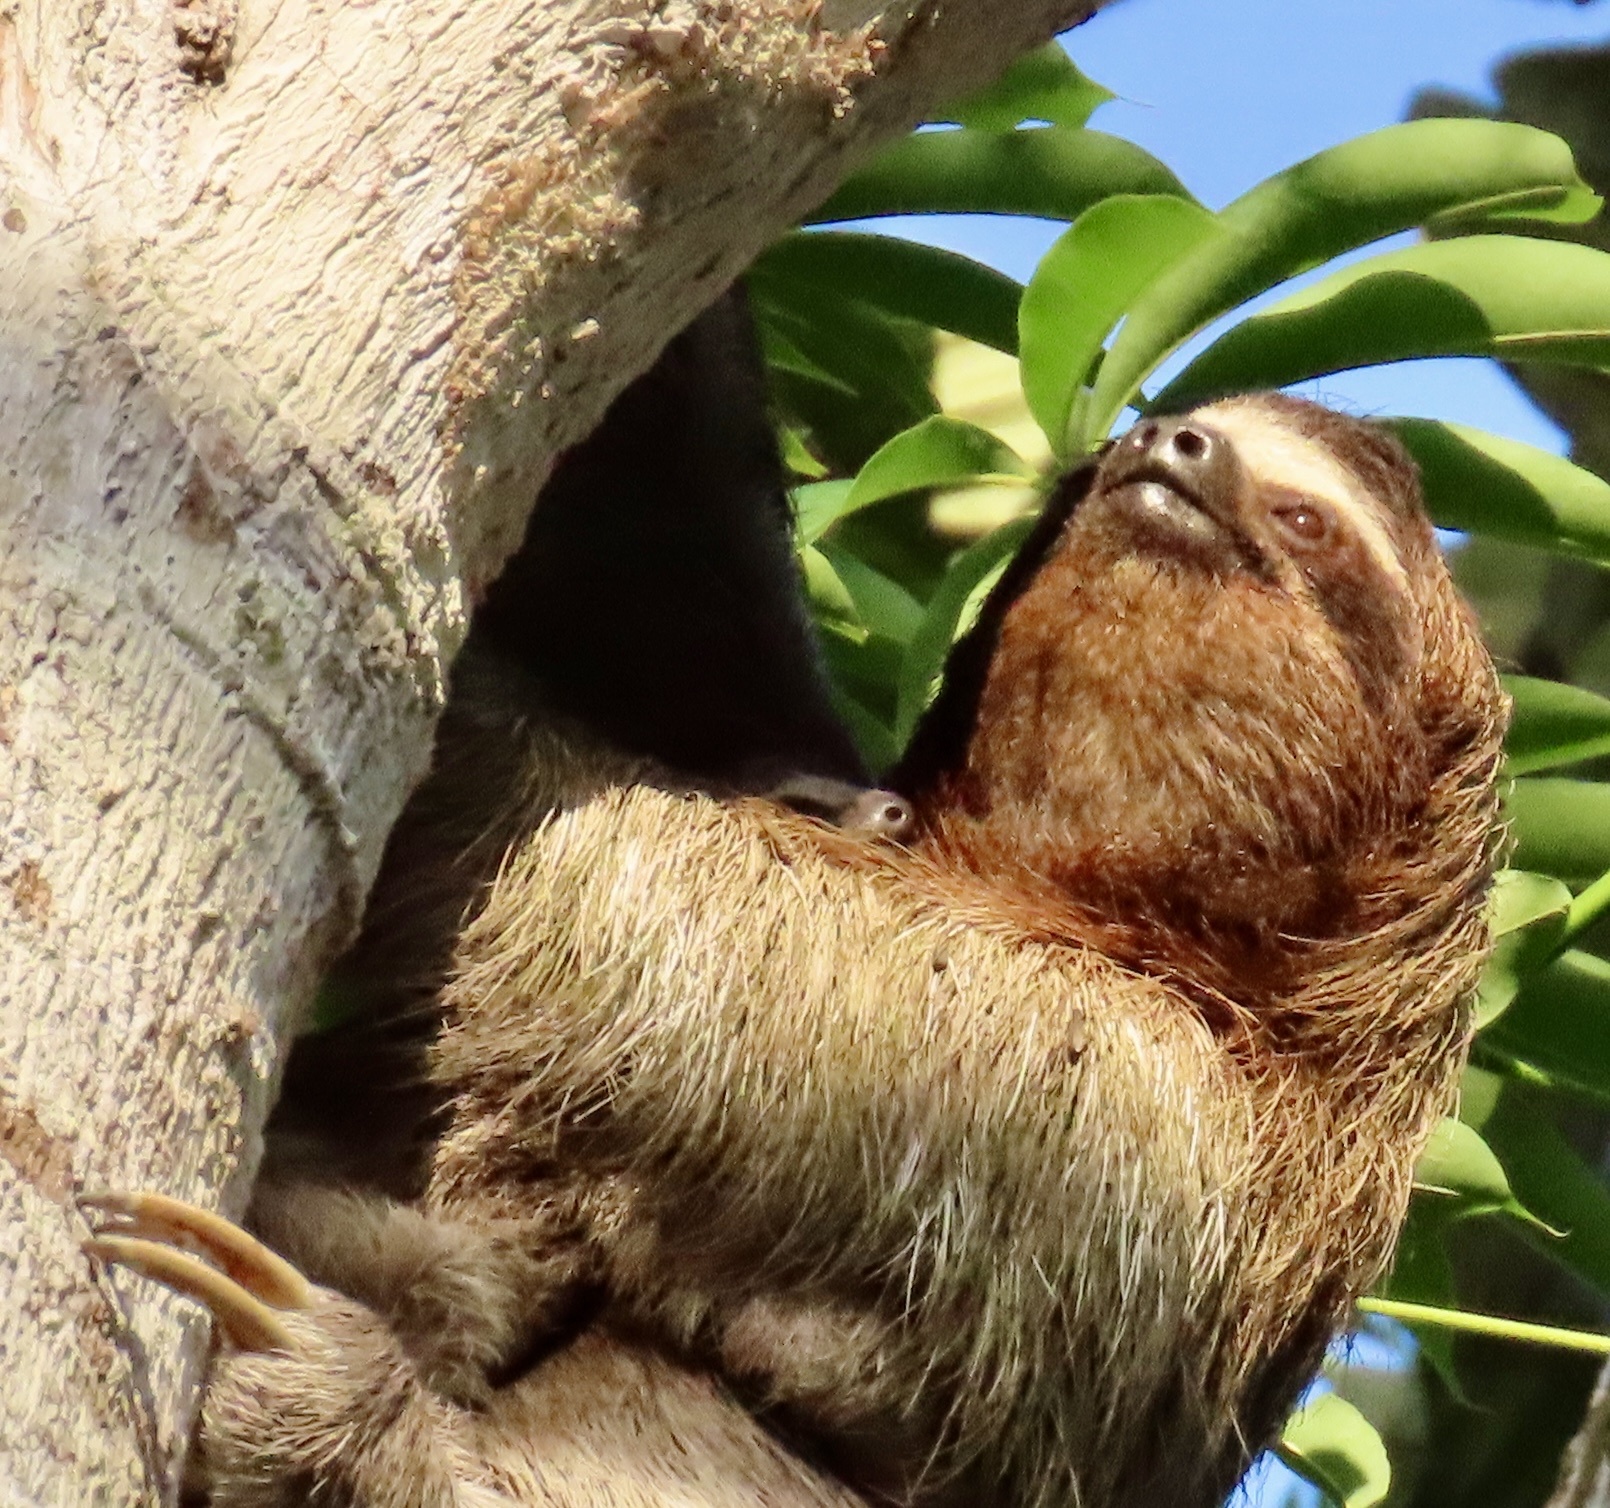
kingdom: Animalia
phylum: Chordata
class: Mammalia
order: Pilosa
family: Bradypodidae
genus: Bradypus
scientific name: Bradypus variegatus
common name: Brown-throated three-toed sloth
